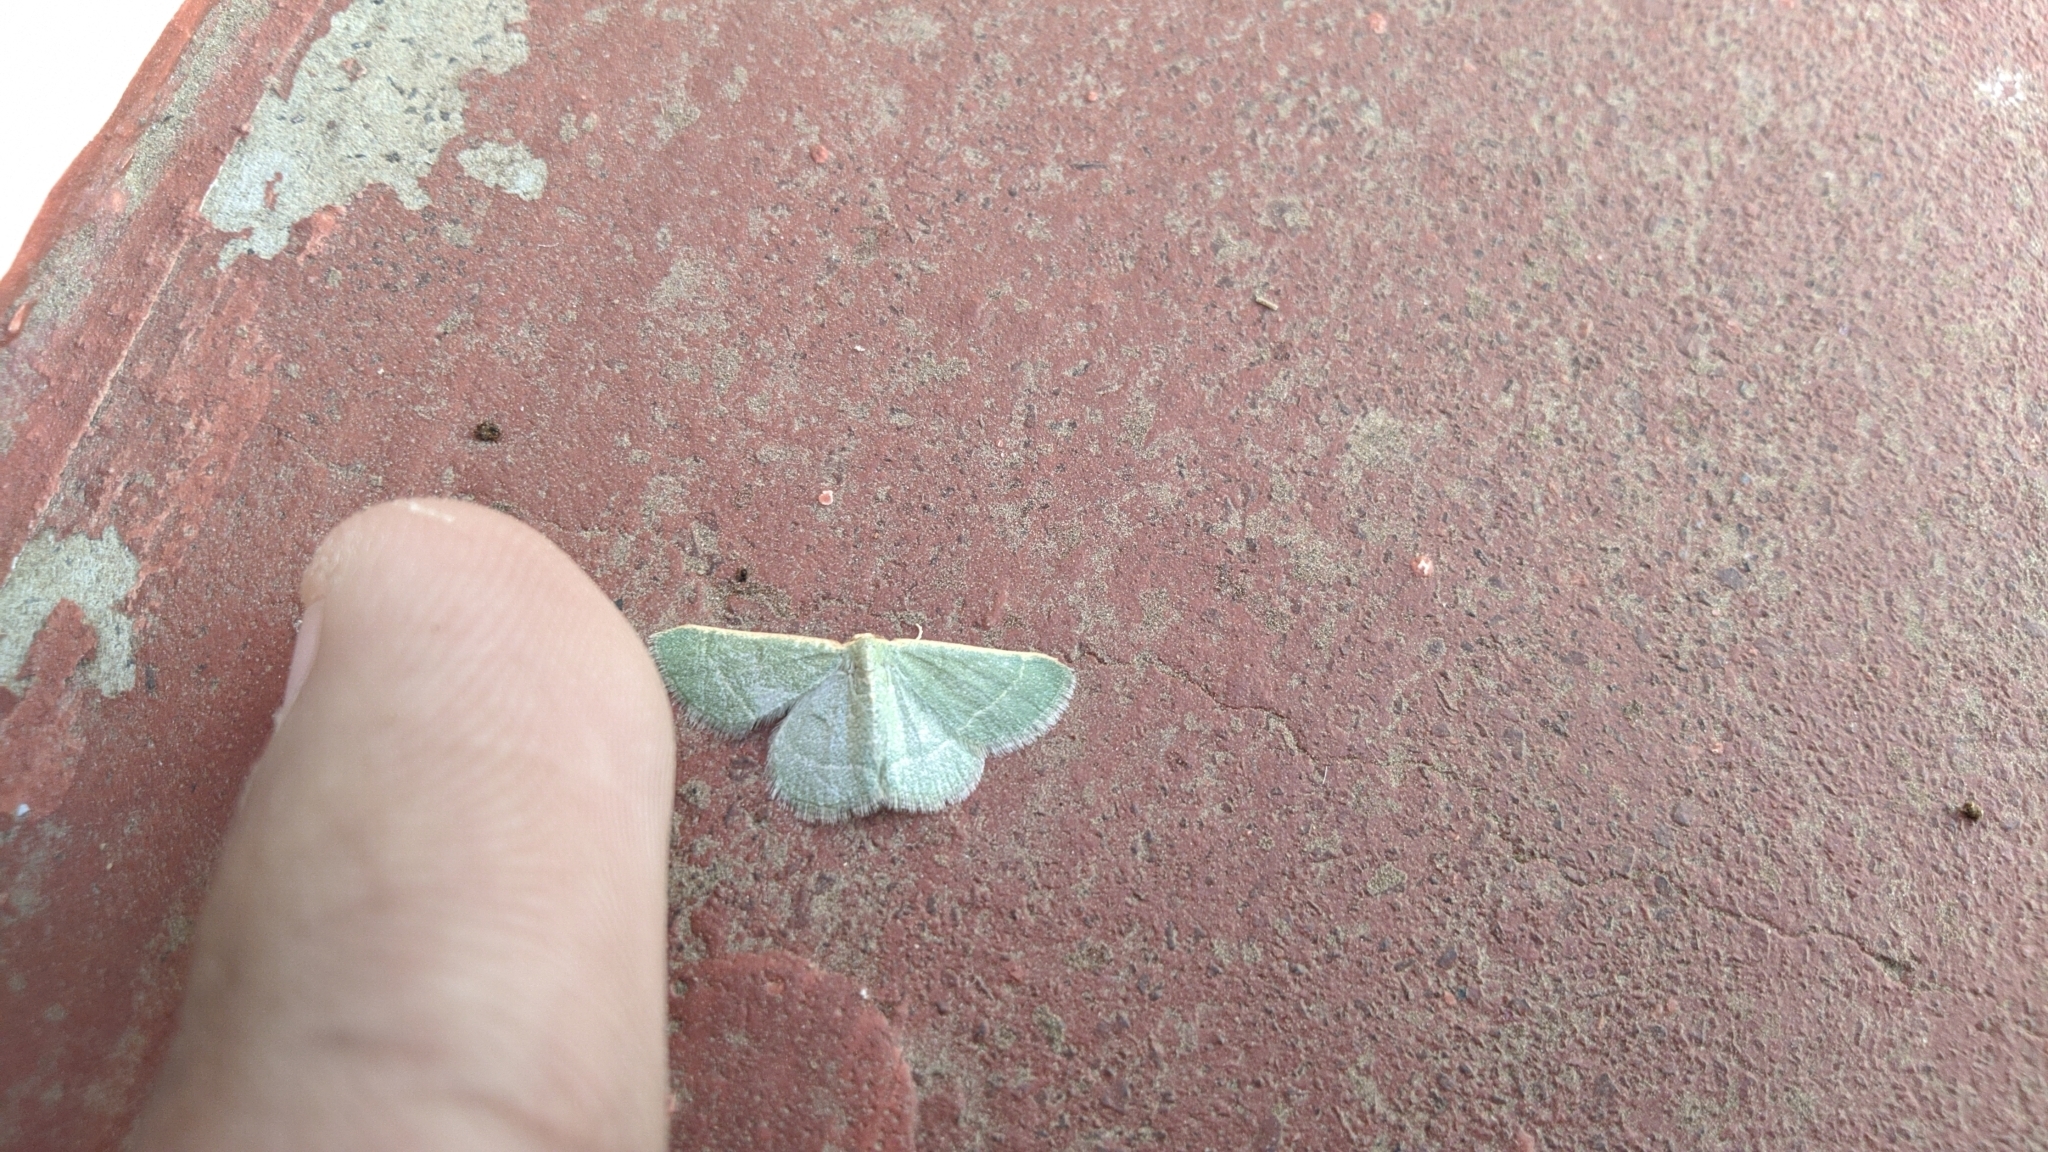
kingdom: Animalia
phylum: Arthropoda
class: Insecta
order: Lepidoptera
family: Geometridae
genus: Microloxia
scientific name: Microloxia indecretata
